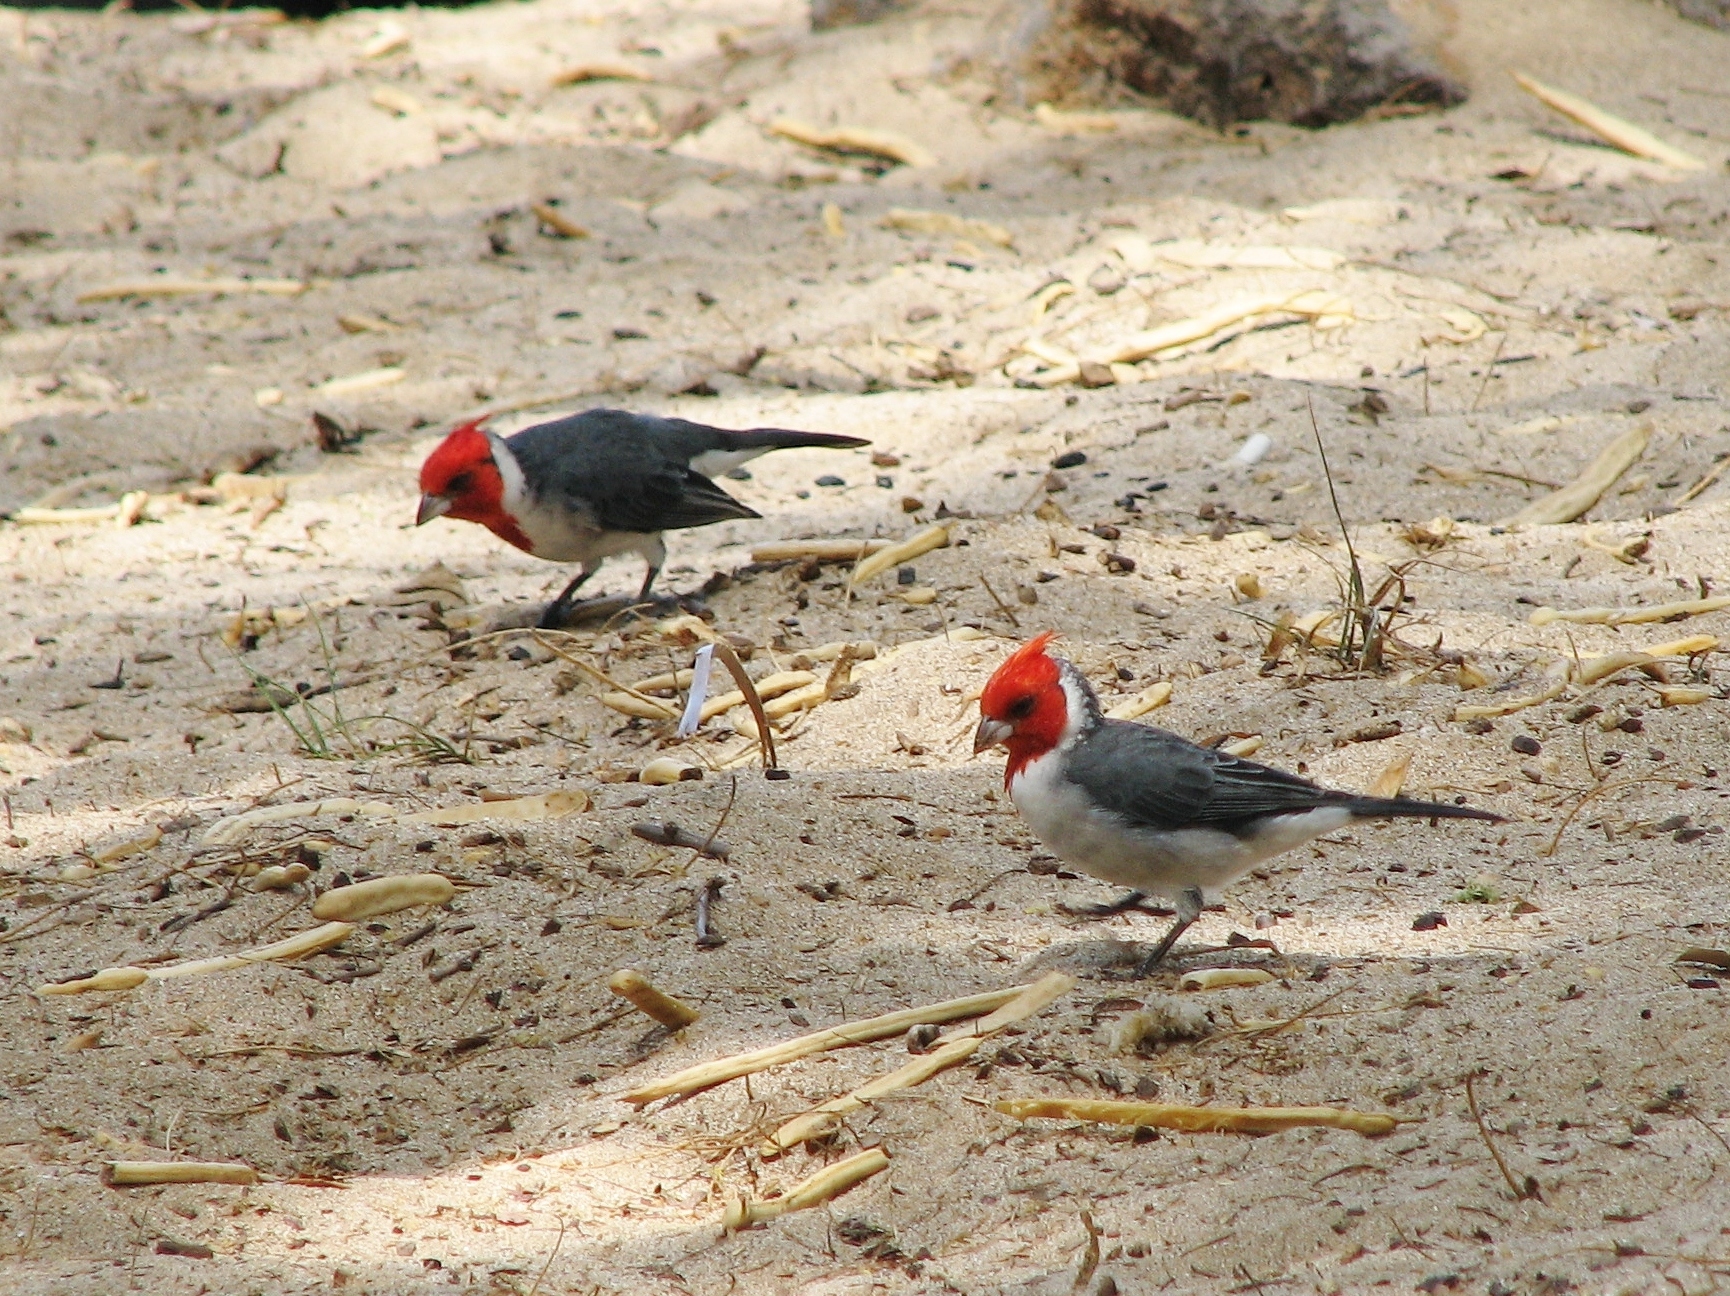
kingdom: Animalia
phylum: Chordata
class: Aves
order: Passeriformes
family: Thraupidae
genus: Paroaria
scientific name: Paroaria coronata
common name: Red-crested cardinal
